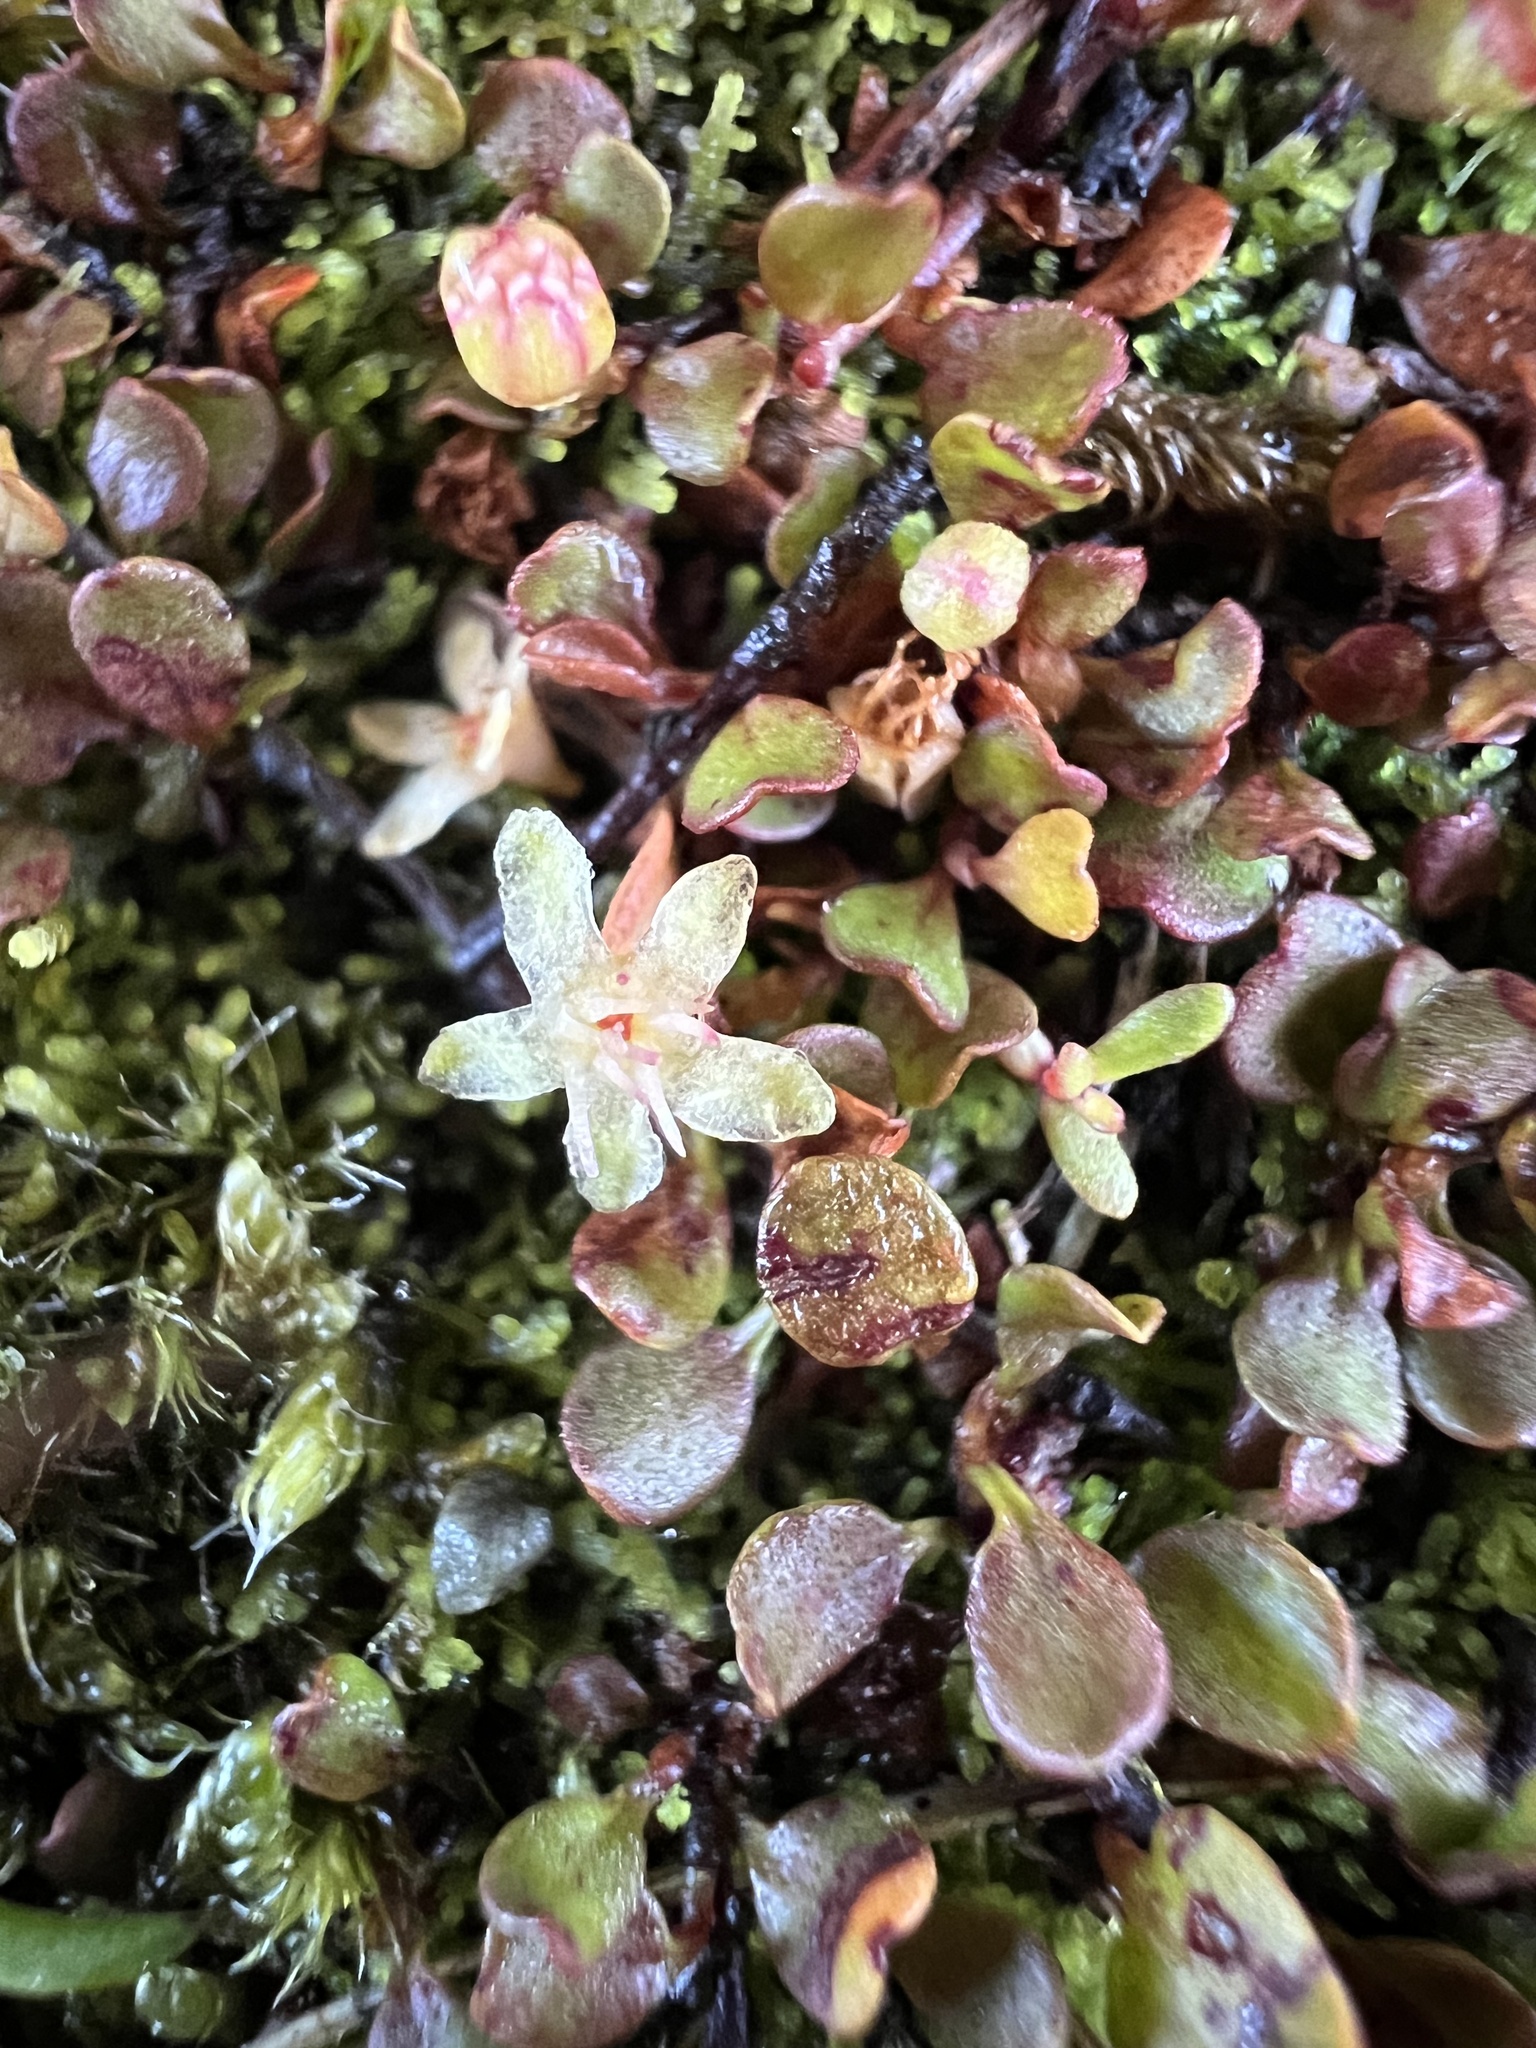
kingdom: Plantae
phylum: Tracheophyta
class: Magnoliopsida
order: Caryophyllales
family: Polygonaceae
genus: Muehlenbeckia
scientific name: Muehlenbeckia axillaris
